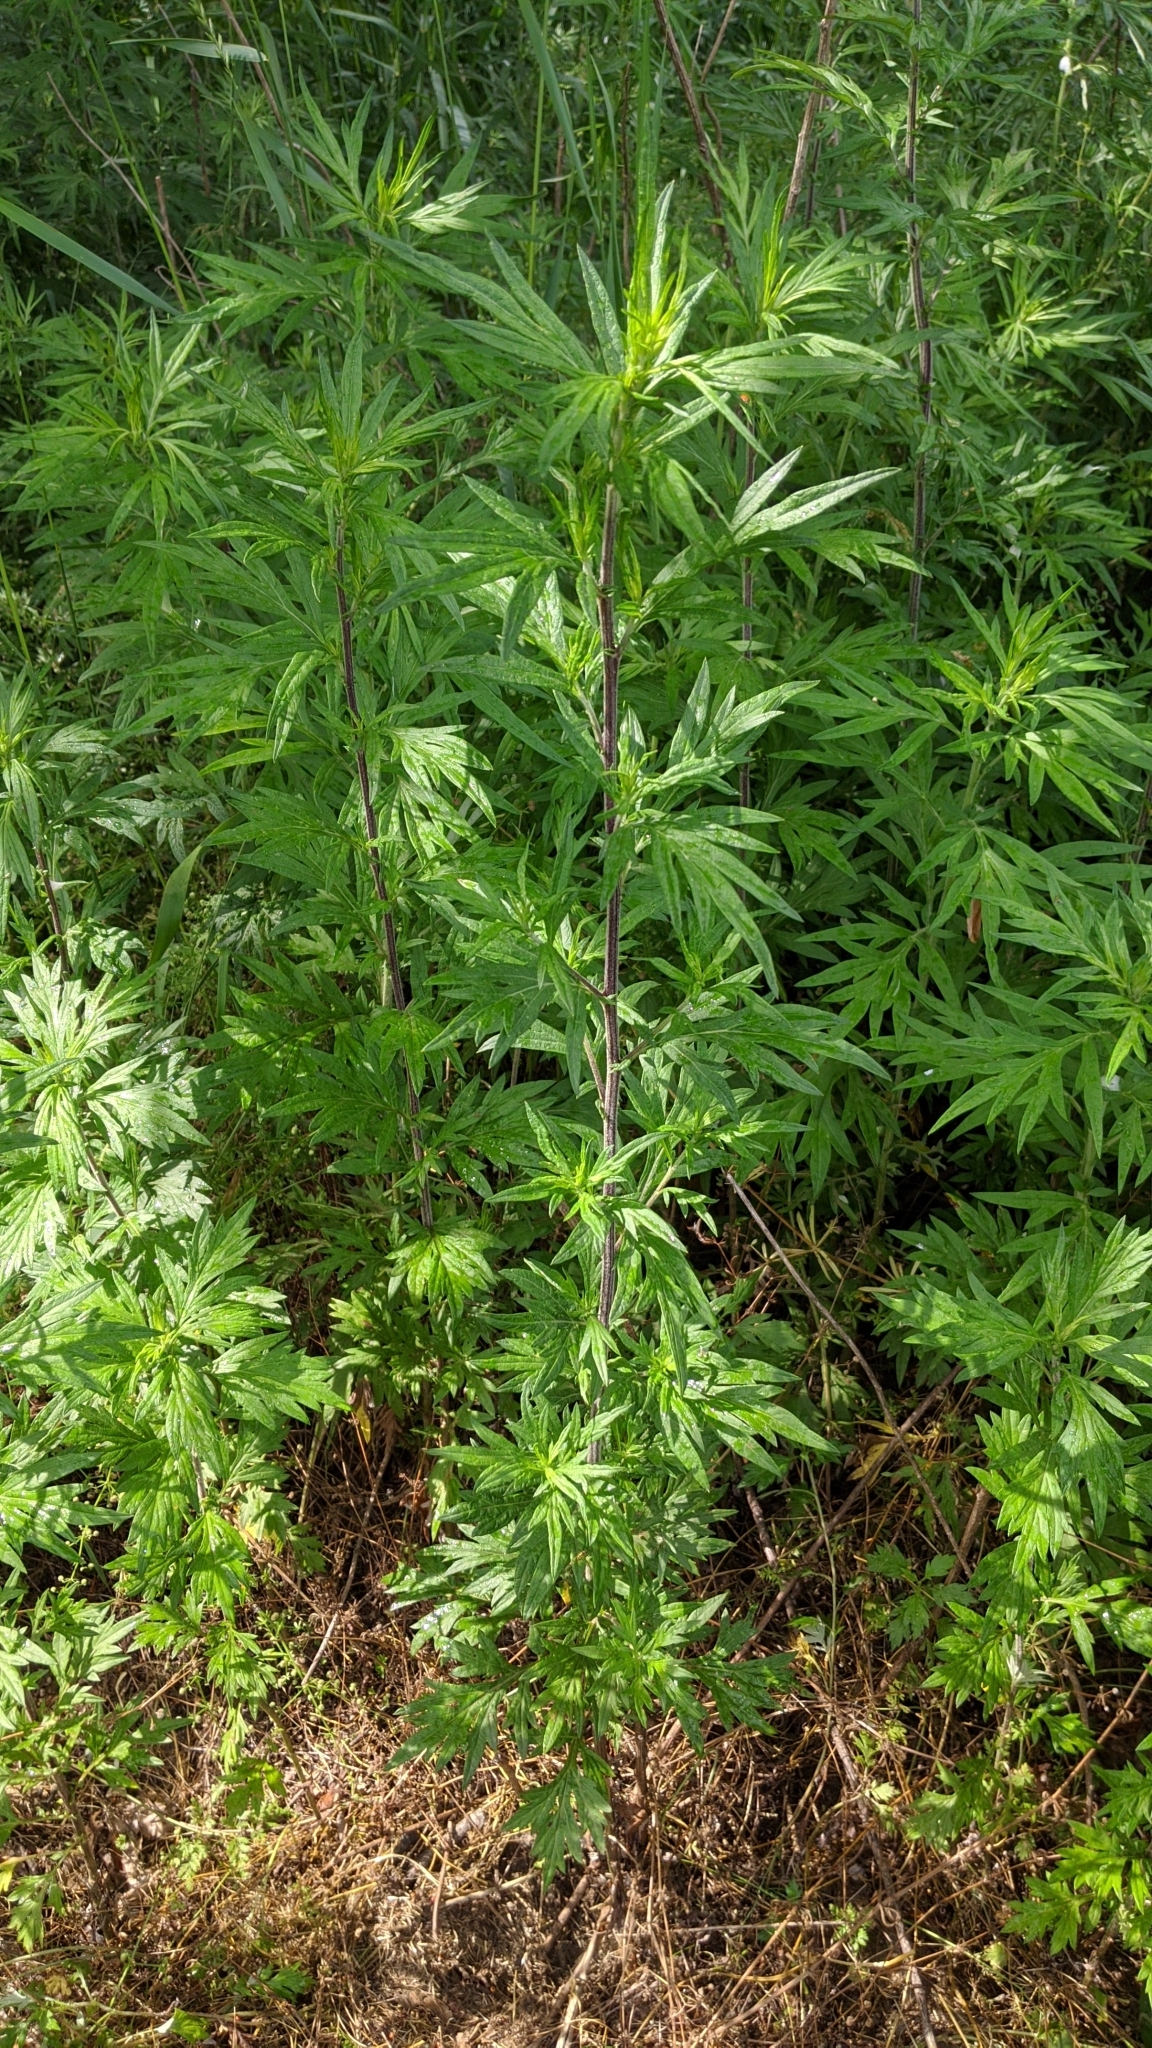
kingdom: Plantae
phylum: Tracheophyta
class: Magnoliopsida
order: Asterales
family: Asteraceae
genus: Artemisia
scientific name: Artemisia vulgaris
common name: Mugwort
